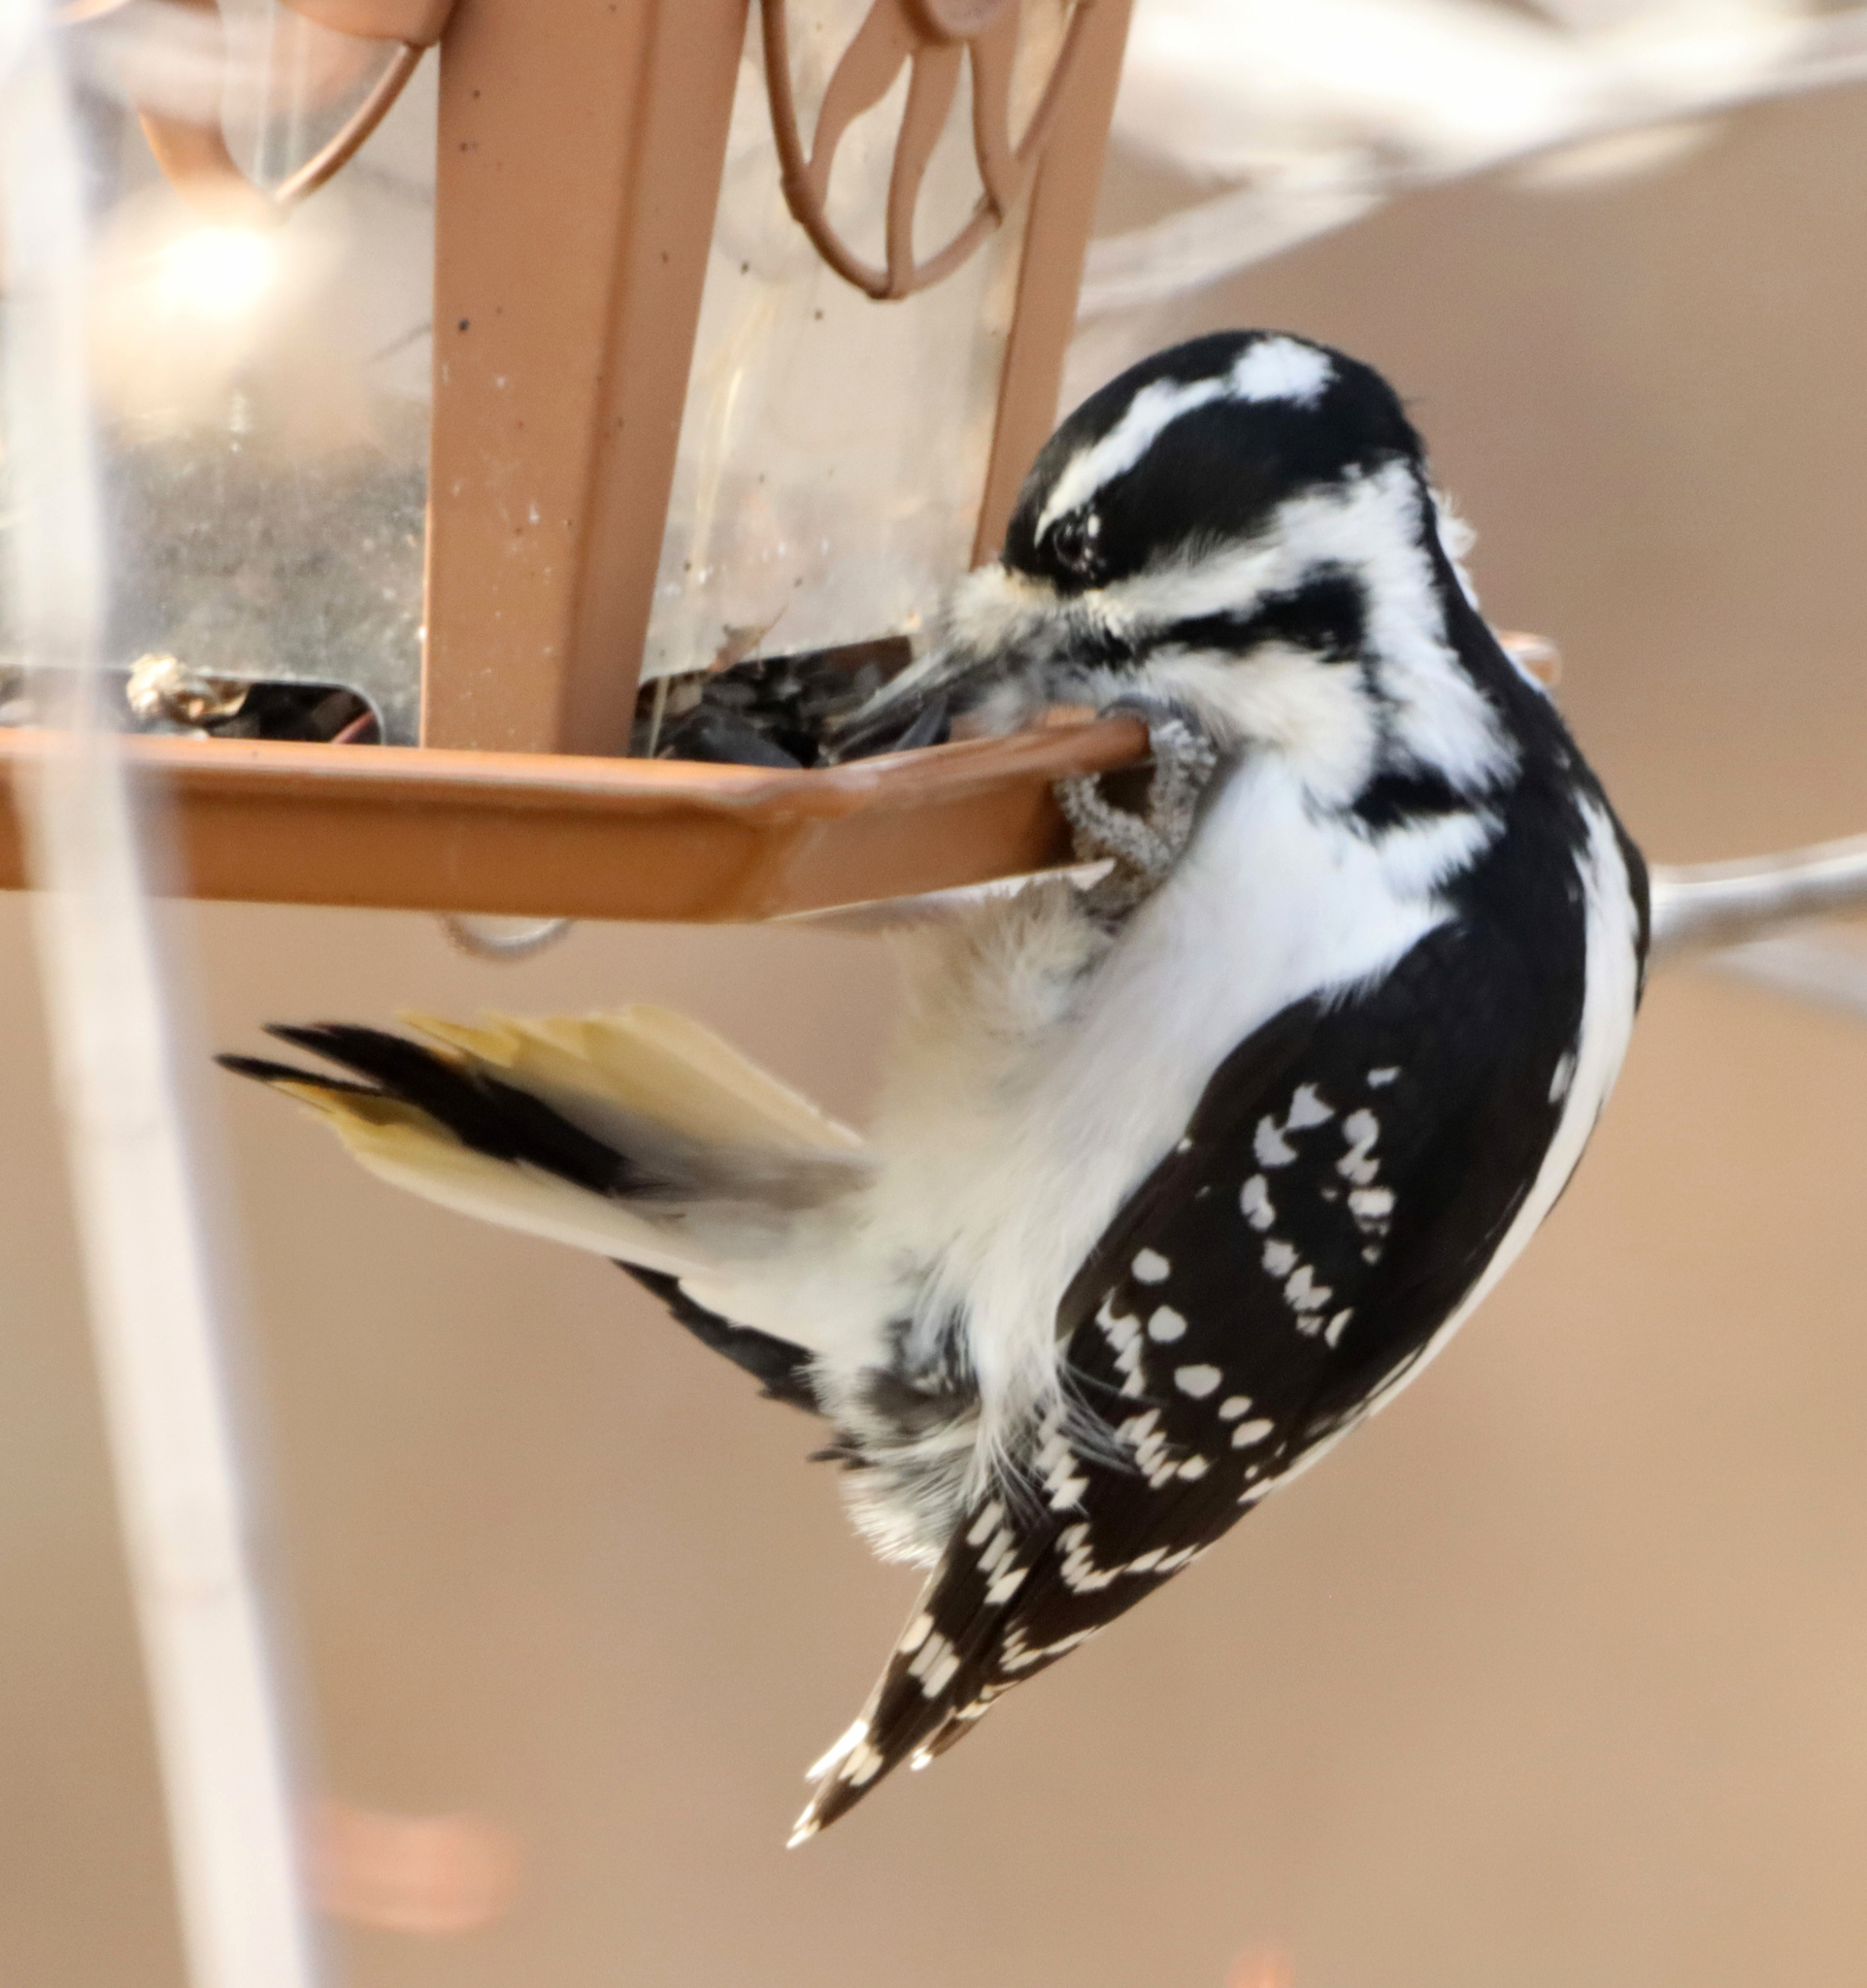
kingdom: Animalia
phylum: Chordata
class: Aves
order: Piciformes
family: Picidae
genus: Leuconotopicus
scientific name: Leuconotopicus villosus
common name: Hairy woodpecker
